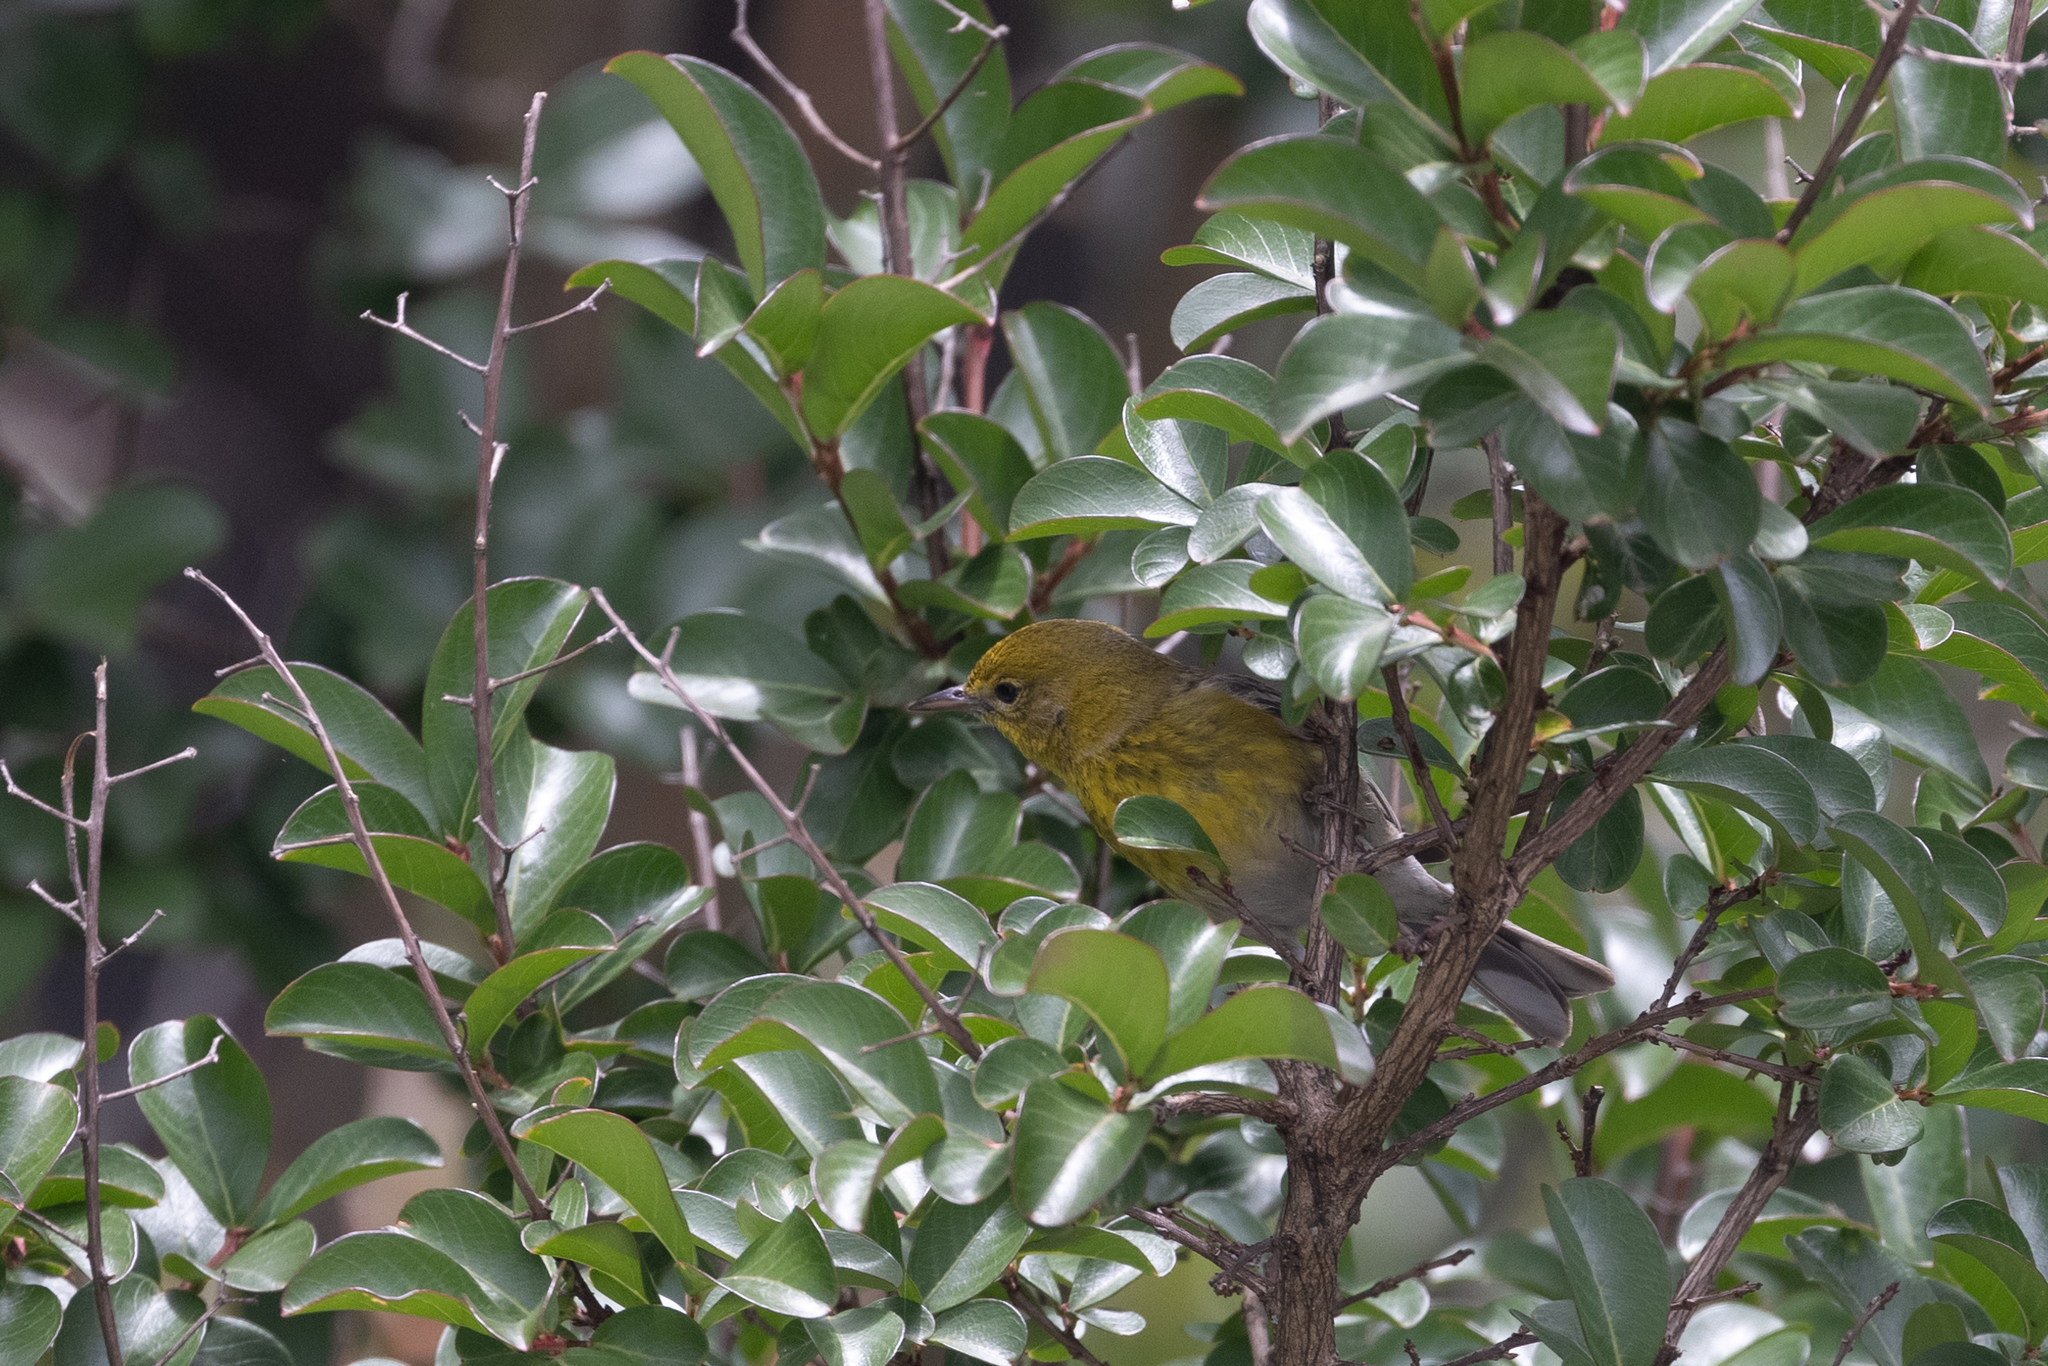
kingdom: Animalia
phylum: Chordata
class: Aves
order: Passeriformes
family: Parulidae
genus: Setophaga
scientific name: Setophaga pinus
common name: Pine warbler
